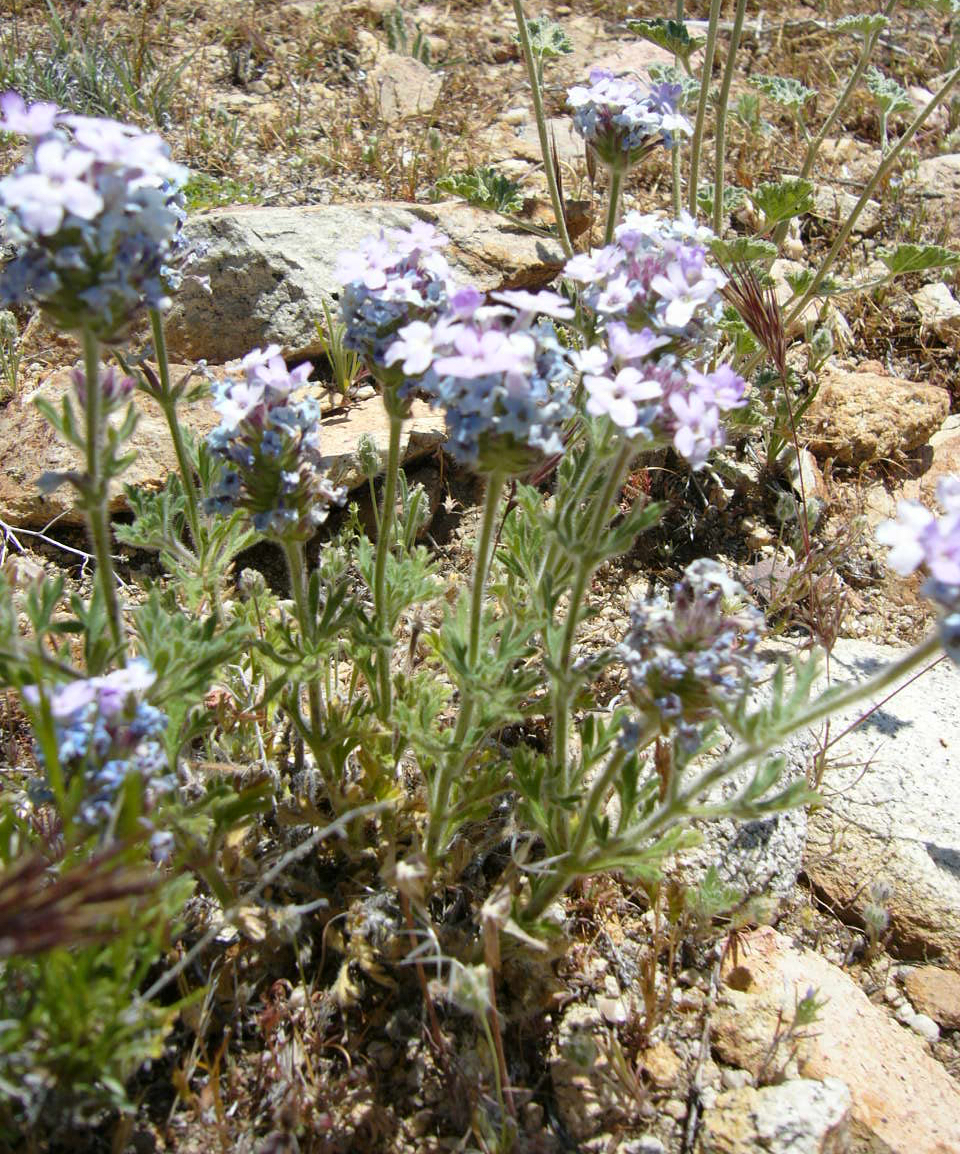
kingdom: Plantae
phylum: Tracheophyta
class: Magnoliopsida
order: Lamiales
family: Verbenaceae
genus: Verbena
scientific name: Verbena gooddingii
